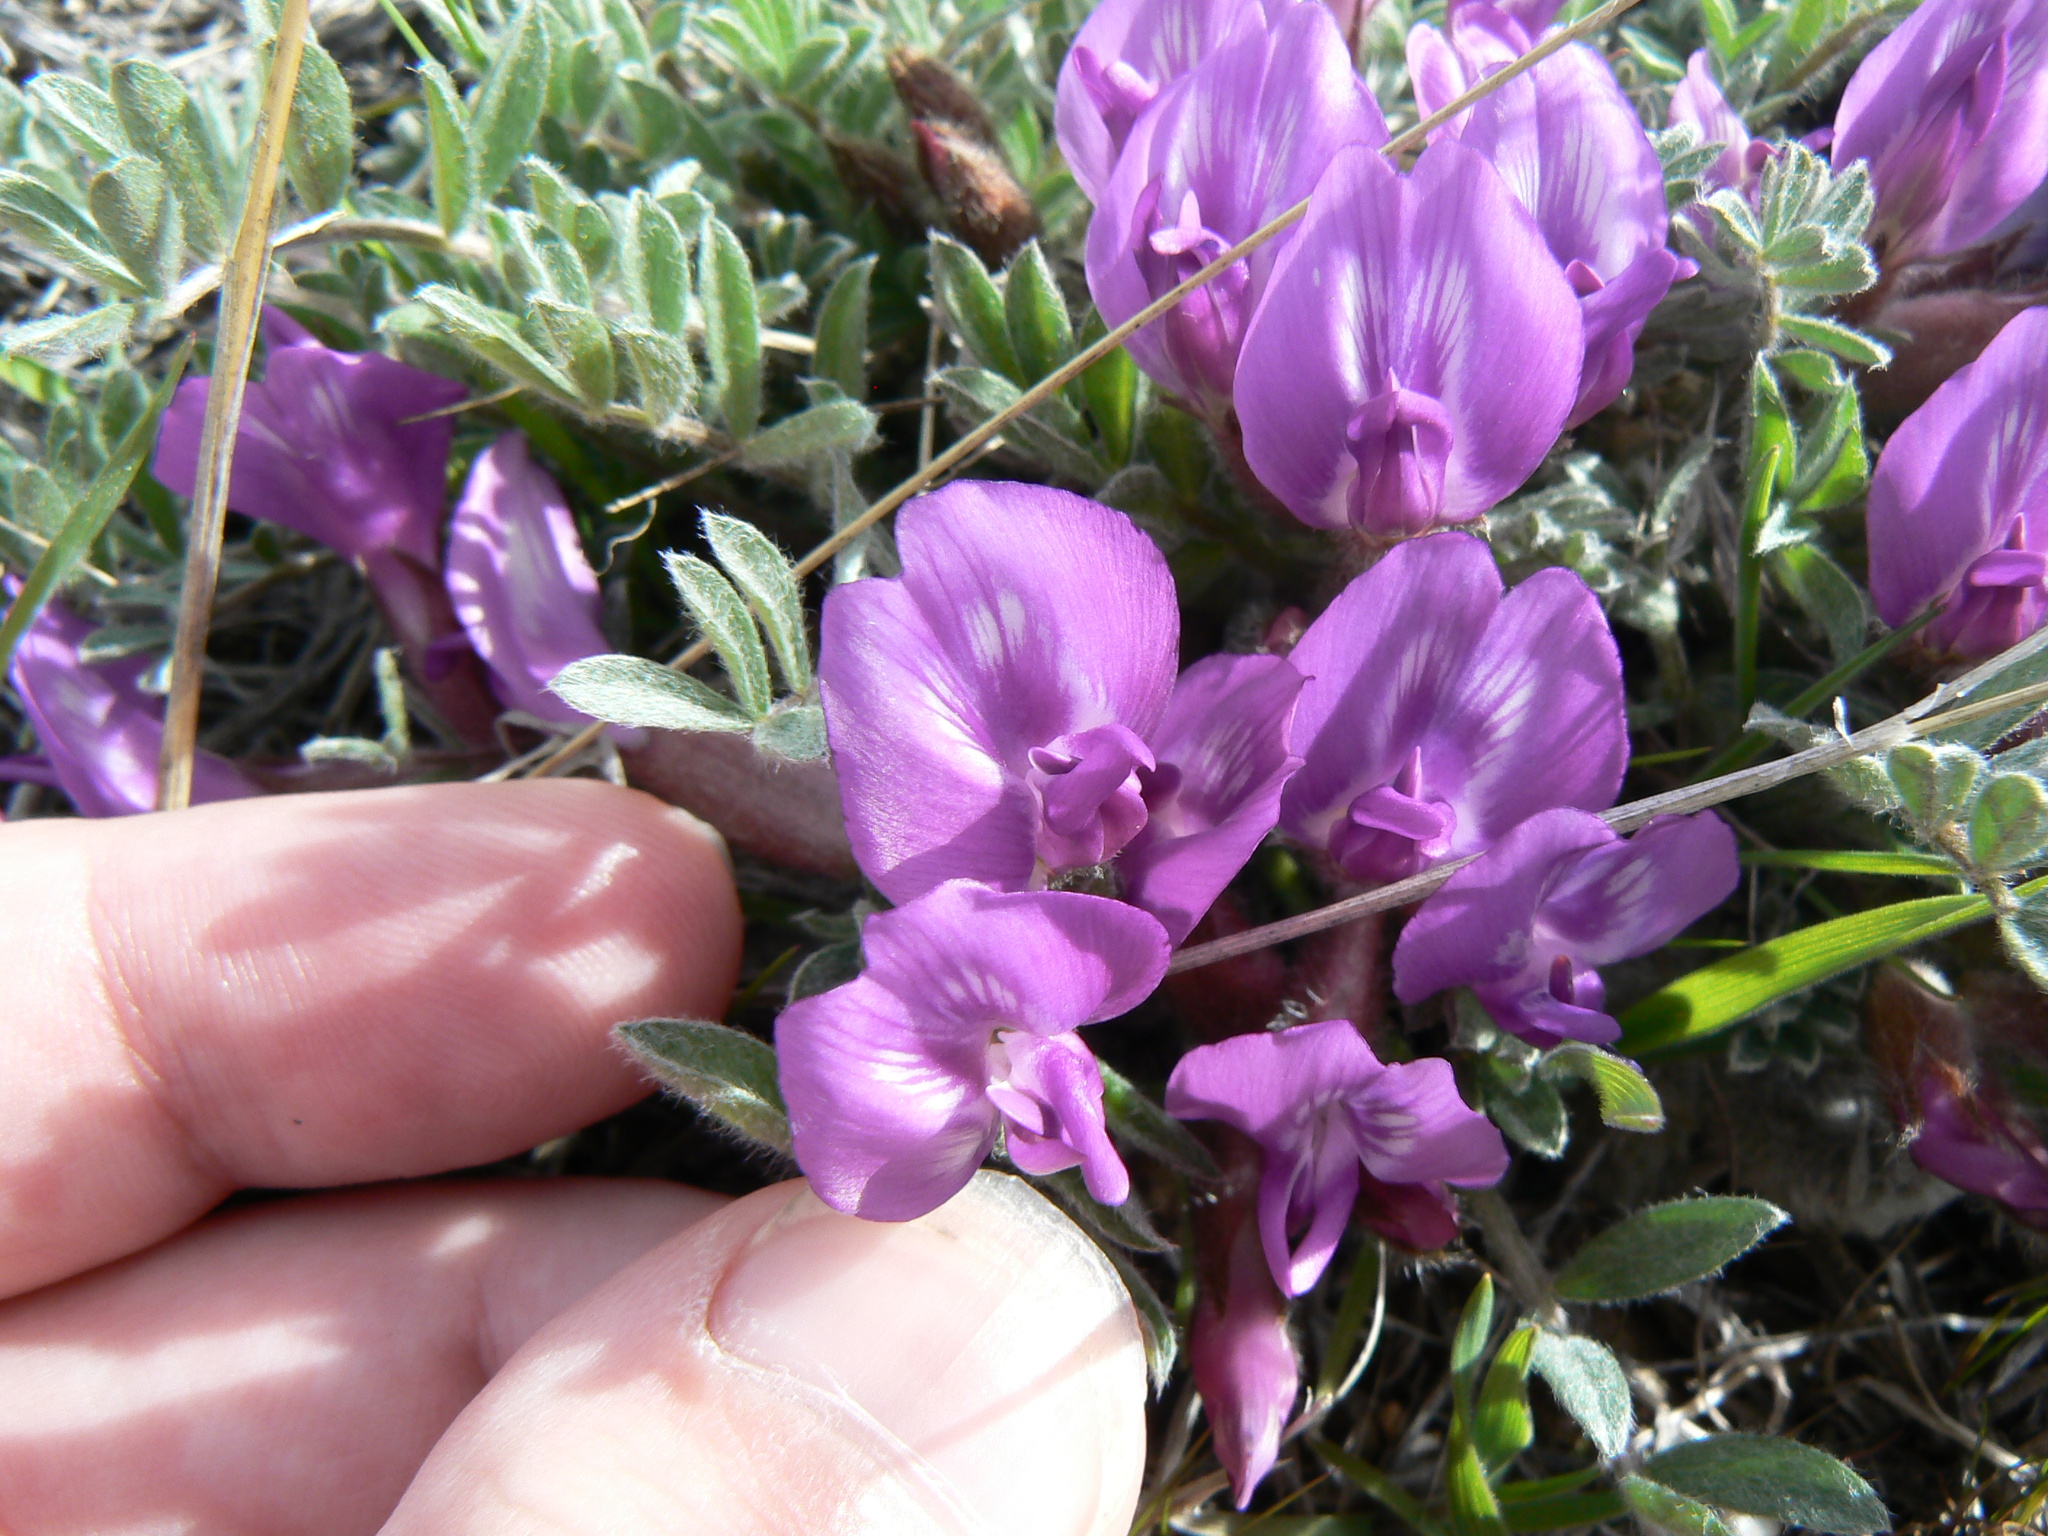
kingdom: Plantae
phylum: Tracheophyta
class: Magnoliopsida
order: Fabales
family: Fabaceae
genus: Astragalus
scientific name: Astragalus purshii
